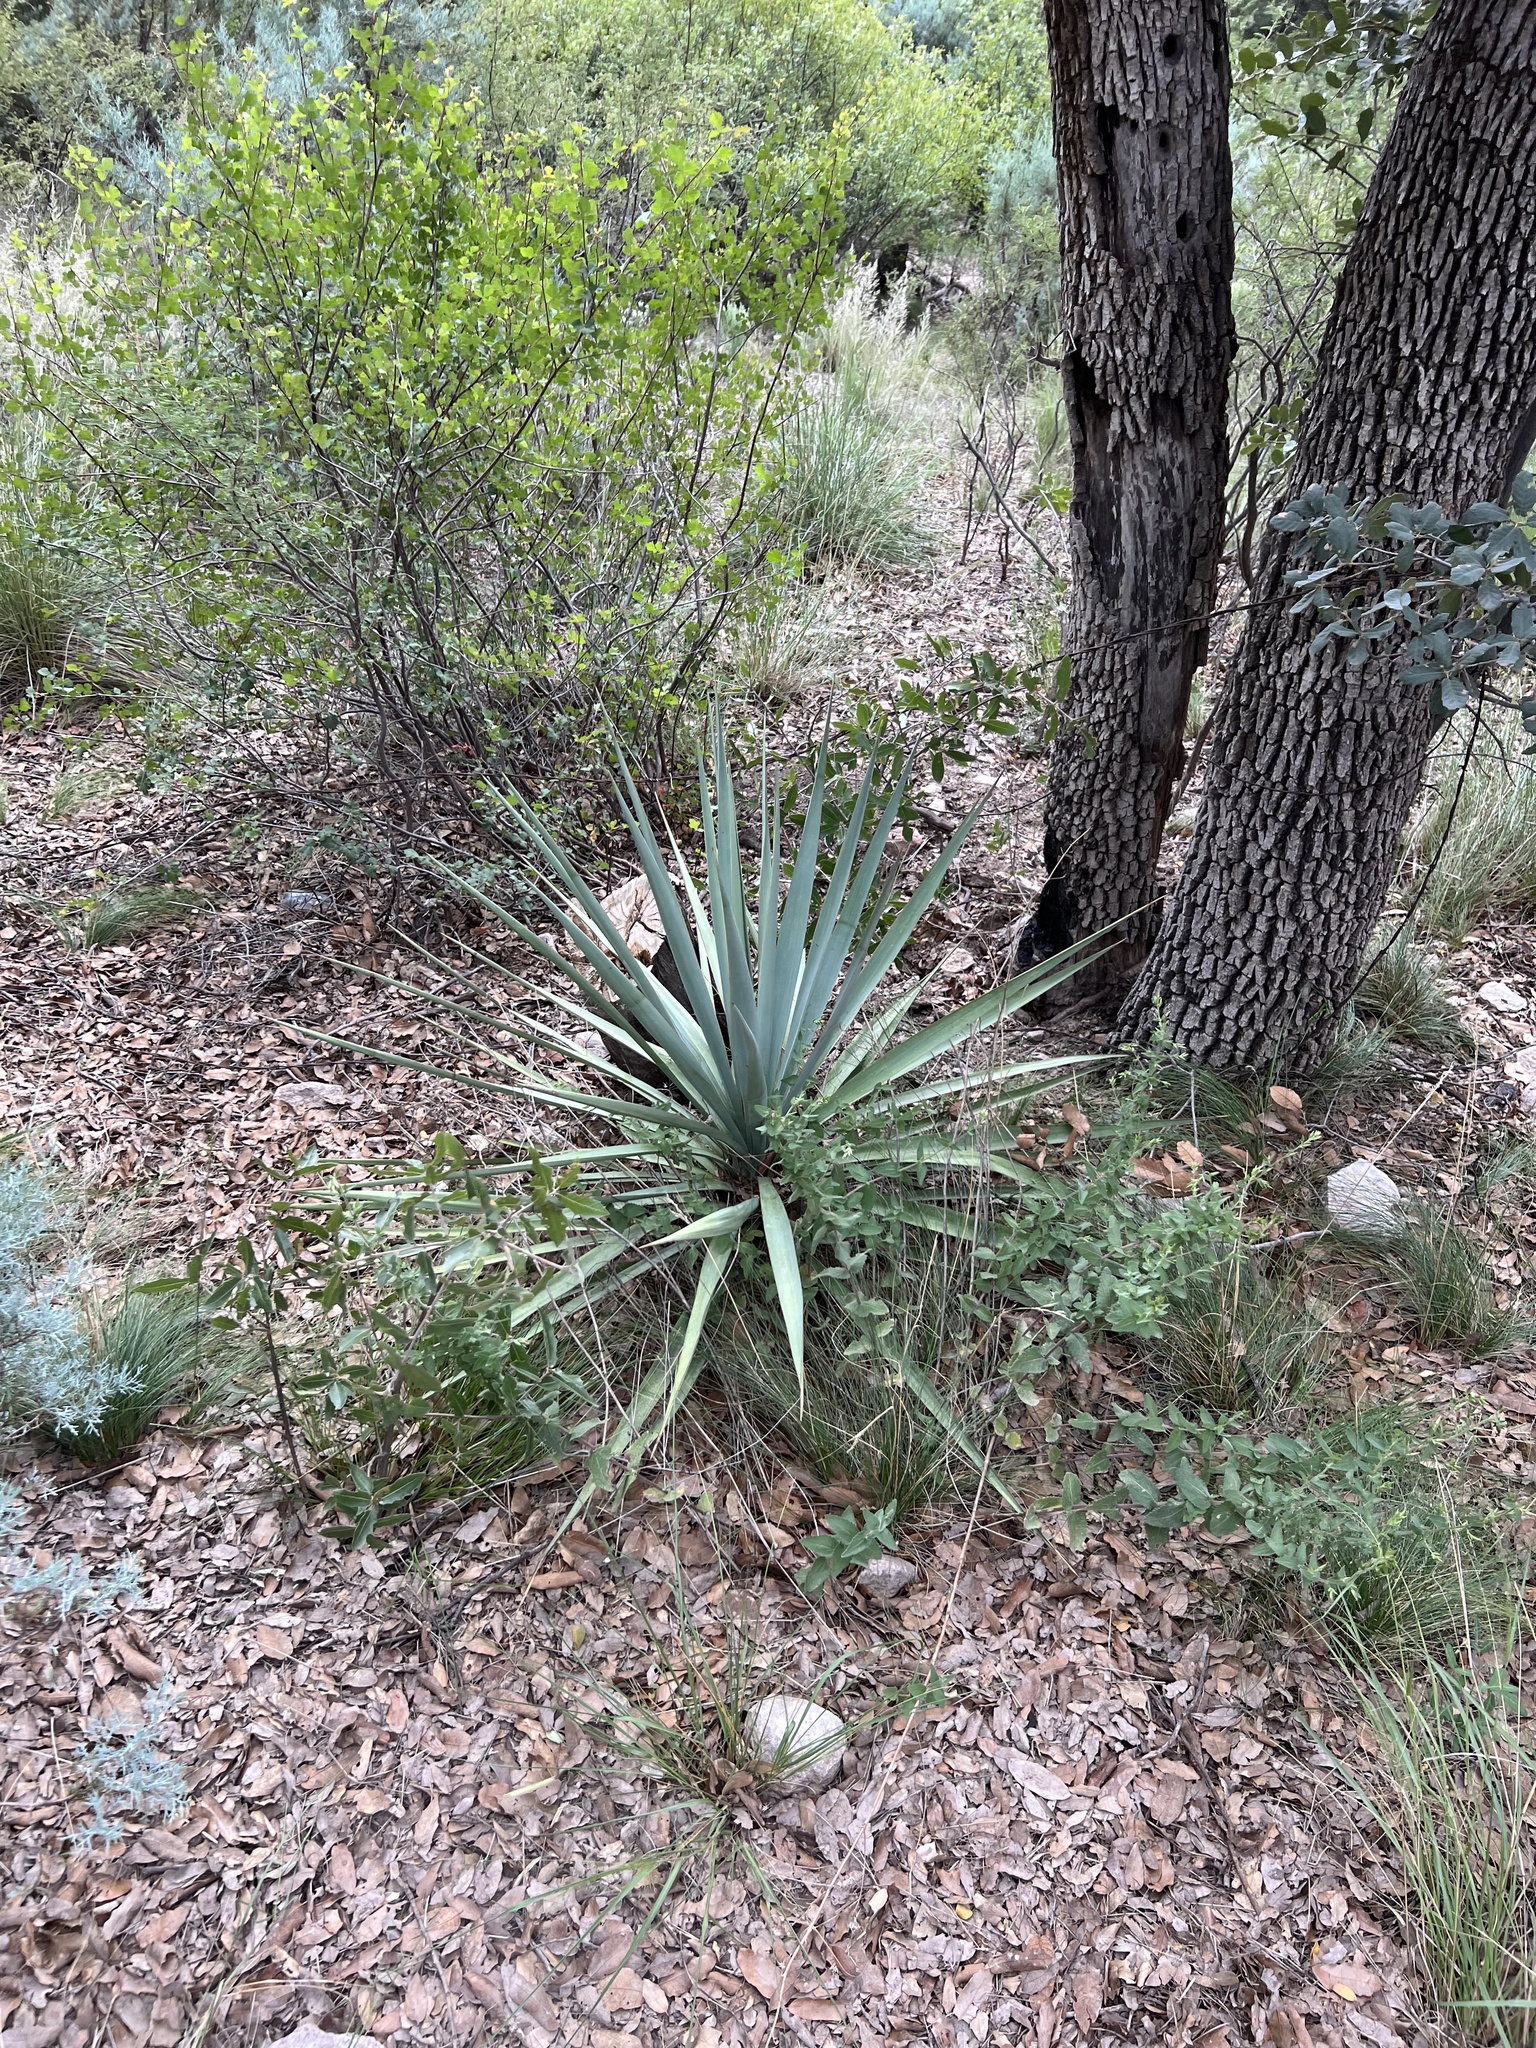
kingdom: Plantae
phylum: Tracheophyta
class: Liliopsida
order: Asparagales
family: Asparagaceae
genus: Yucca
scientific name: Yucca schottii
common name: Hoary yucca
